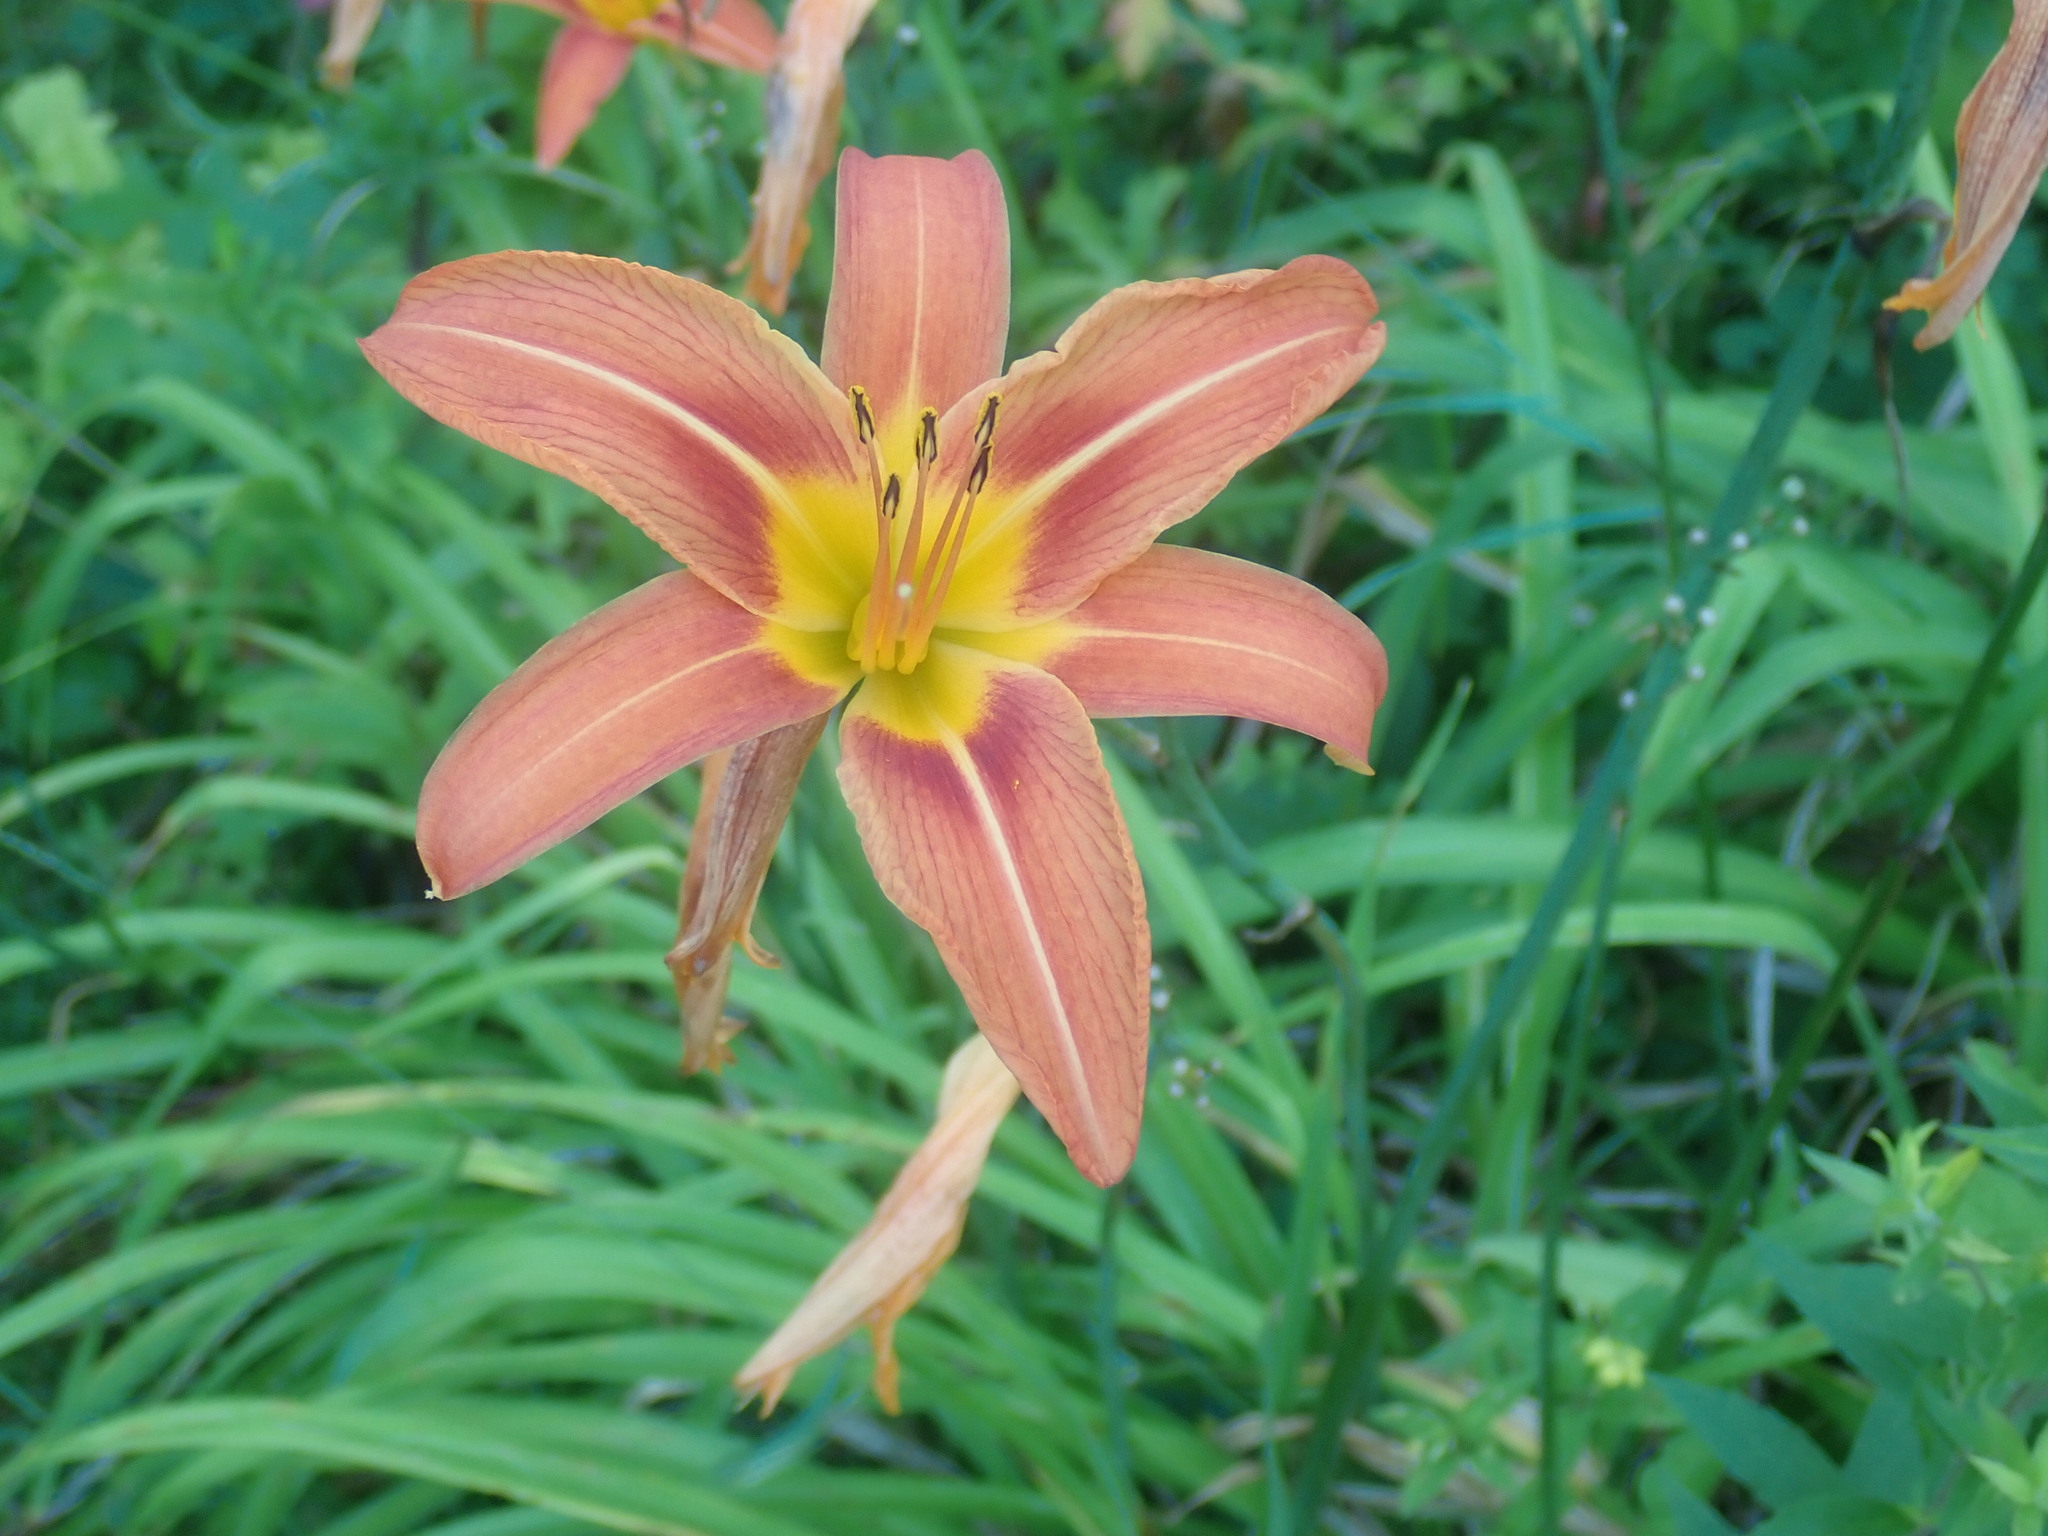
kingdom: Plantae
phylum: Tracheophyta
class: Liliopsida
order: Asparagales
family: Asphodelaceae
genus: Hemerocallis
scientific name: Hemerocallis fulva
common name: Orange day-lily
